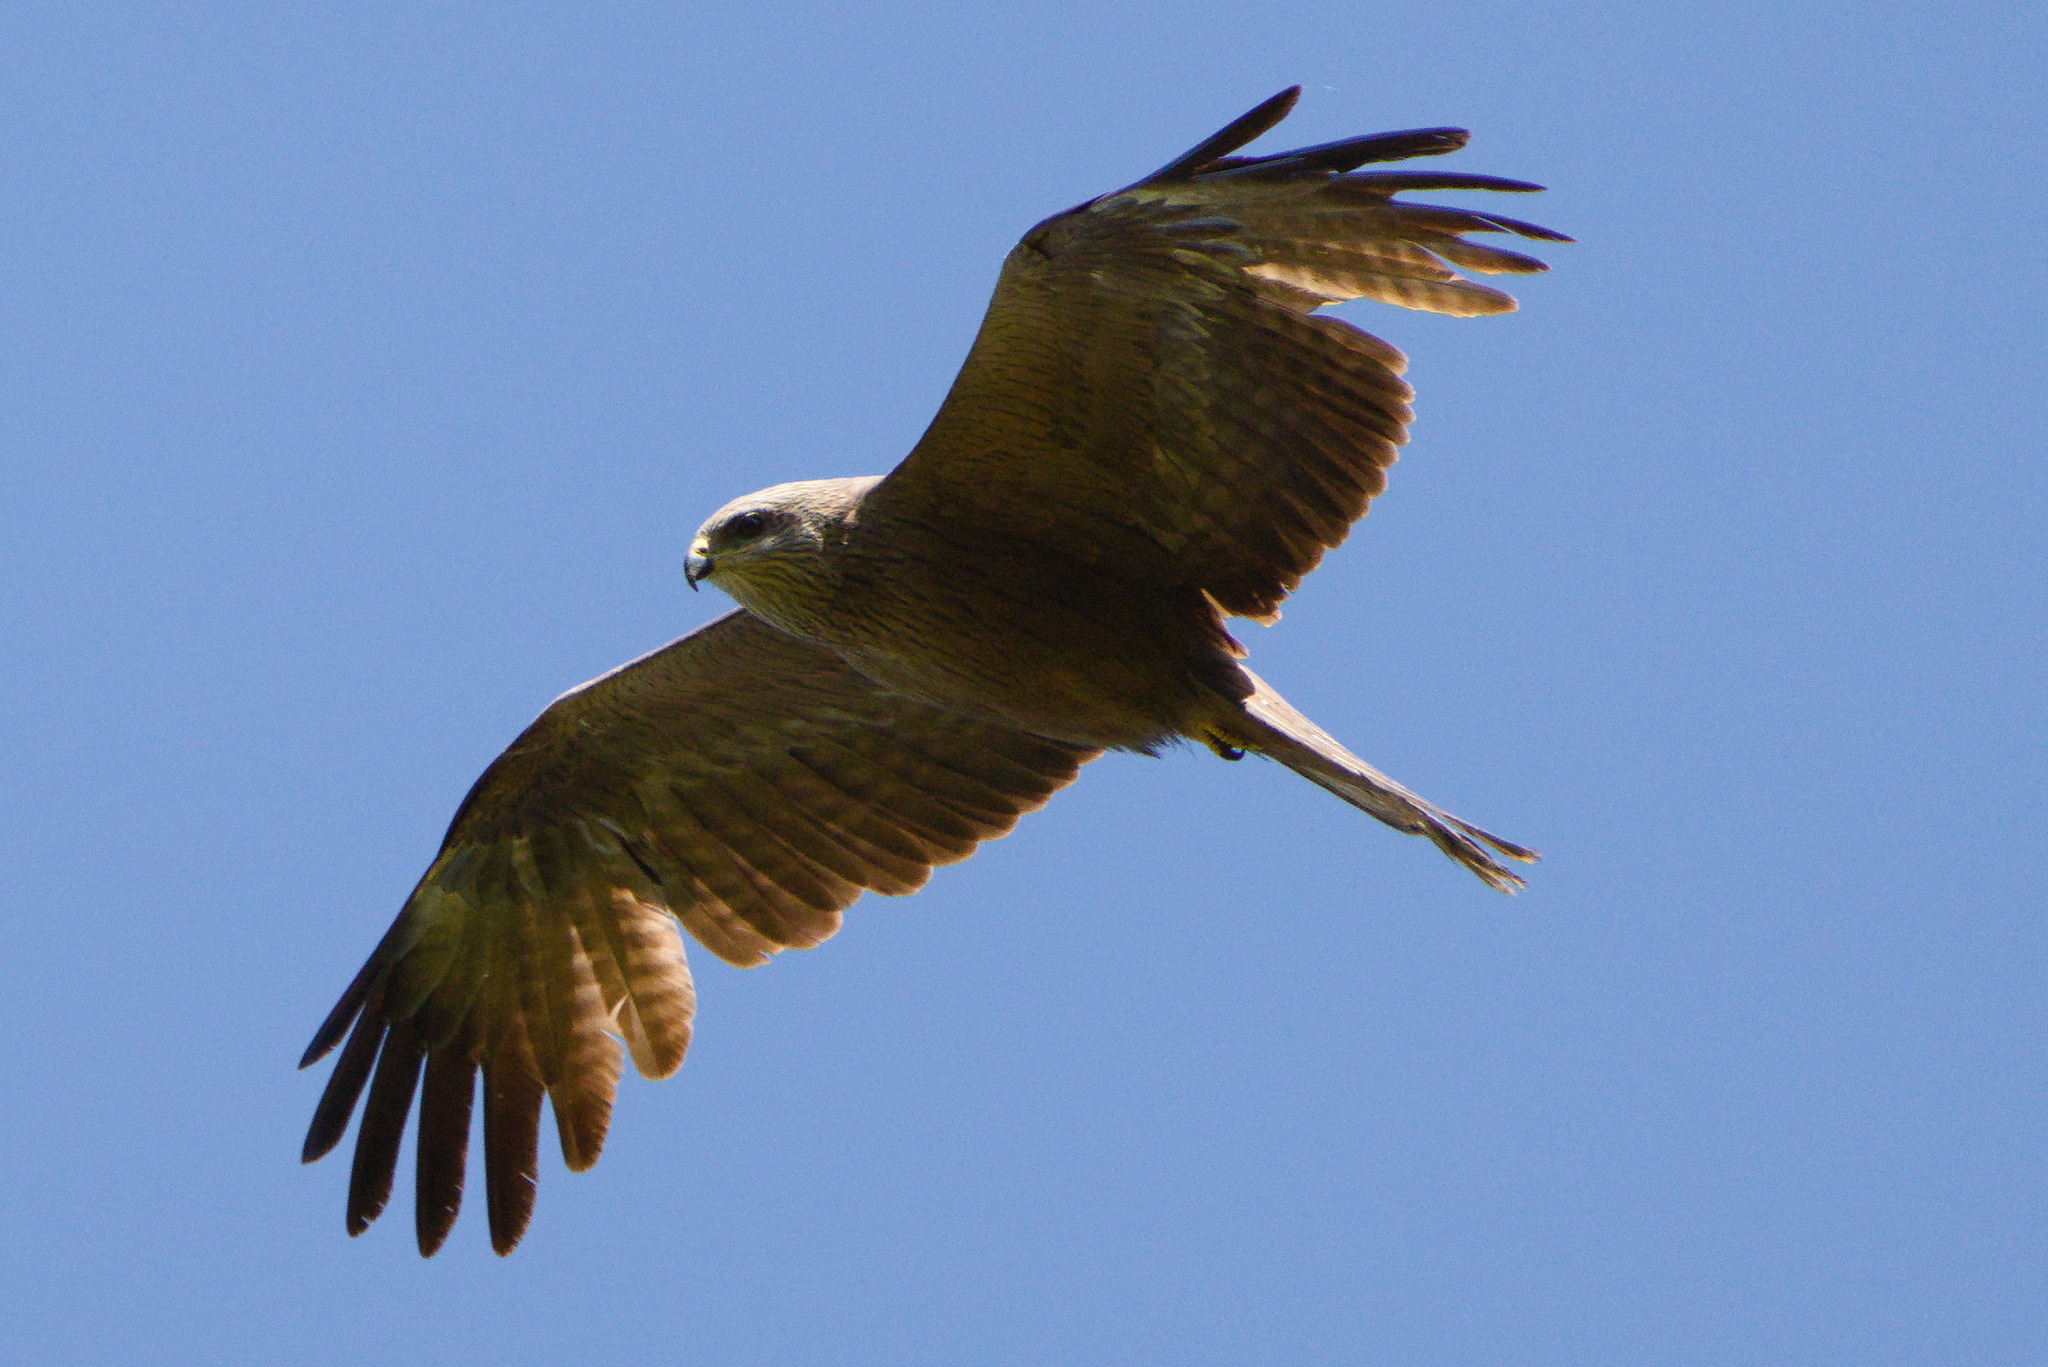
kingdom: Animalia
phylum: Chordata
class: Aves
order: Accipitriformes
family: Accipitridae
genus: Milvus
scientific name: Milvus migrans
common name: Black kite
